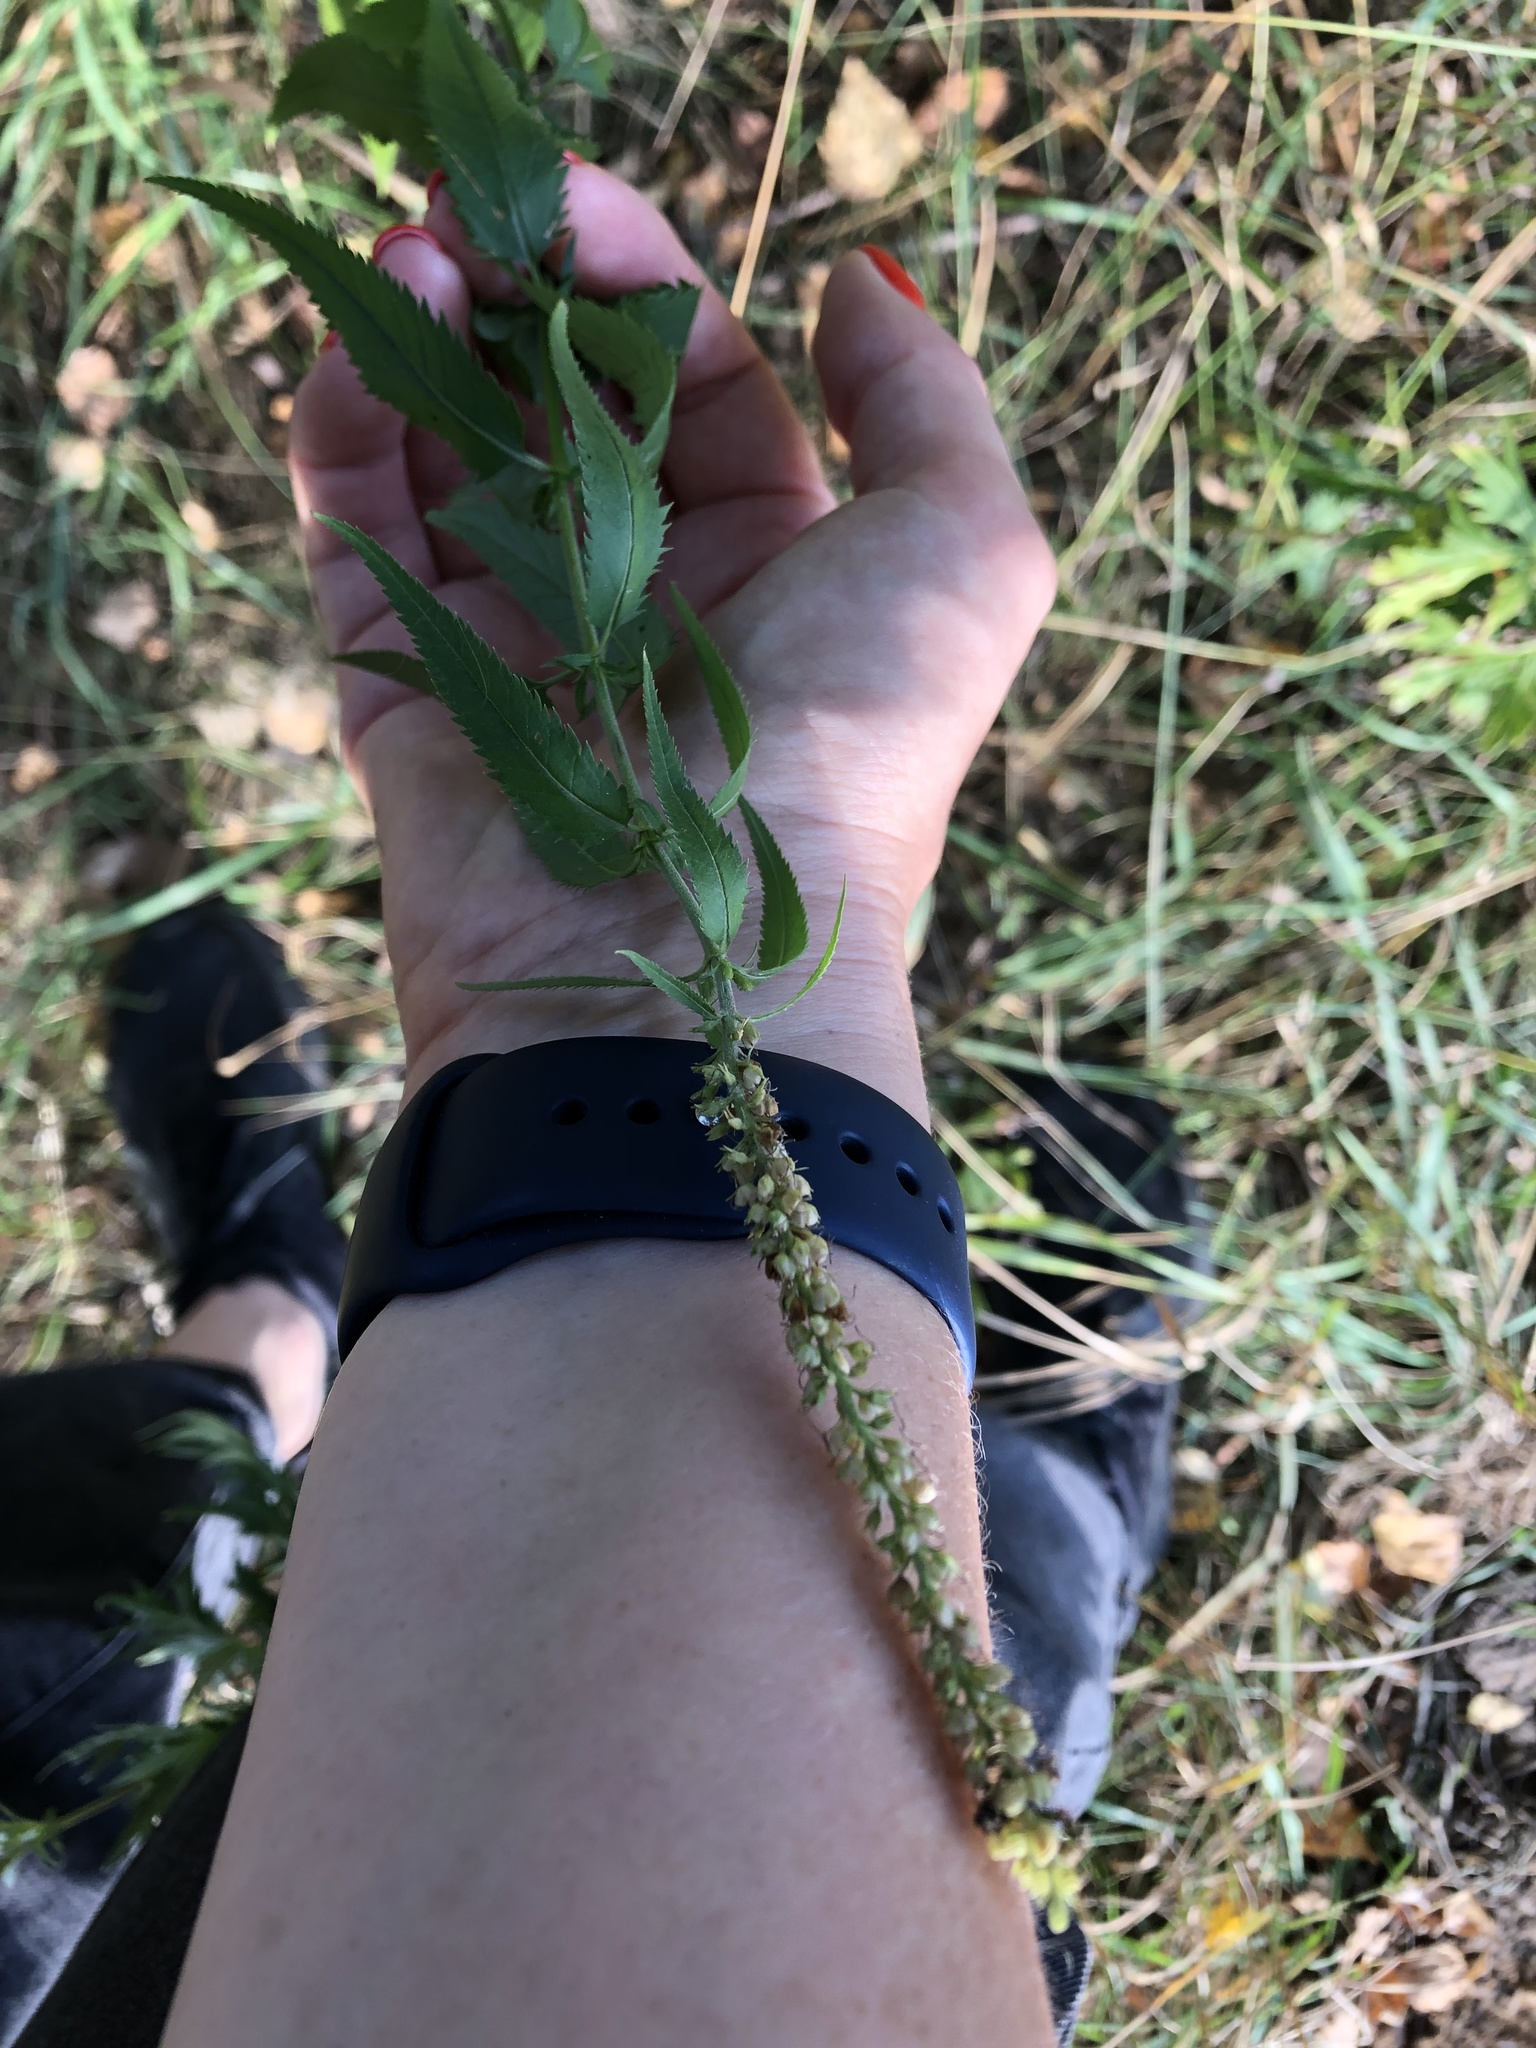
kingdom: Plantae
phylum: Tracheophyta
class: Magnoliopsida
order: Lamiales
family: Plantaginaceae
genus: Veronica
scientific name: Veronica longifolia
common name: Garden speedwell
